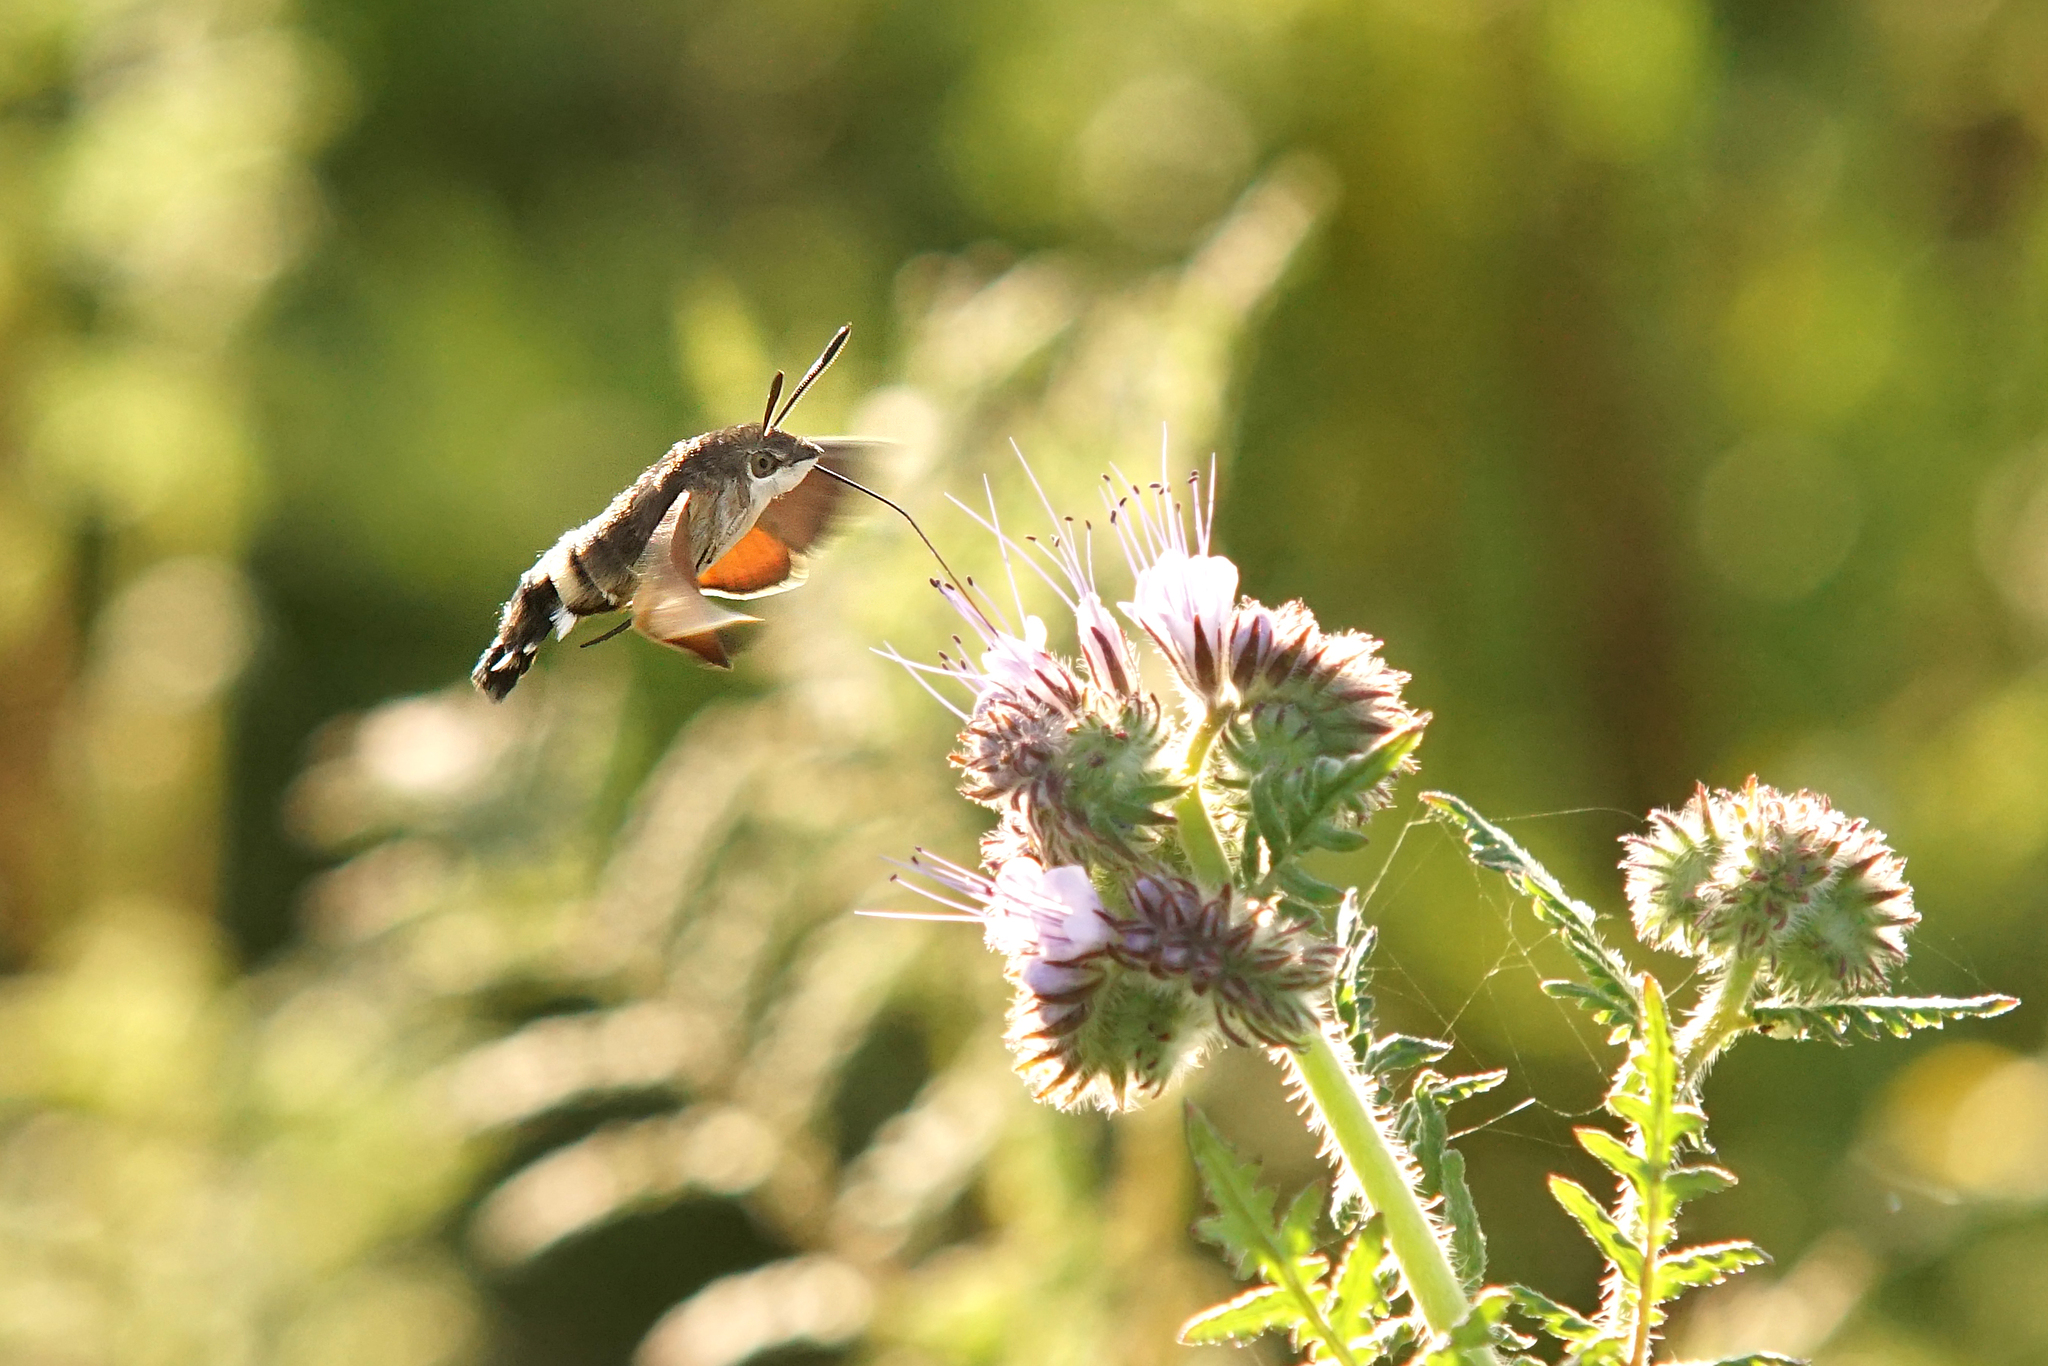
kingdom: Animalia
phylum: Arthropoda
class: Insecta
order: Lepidoptera
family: Sphingidae
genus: Macroglossum
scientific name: Macroglossum stellatarum
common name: Humming-bird hawk-moth
